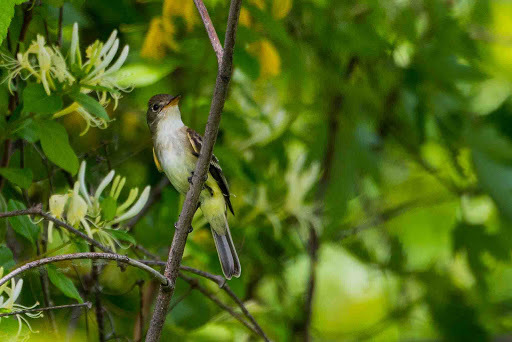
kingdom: Animalia
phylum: Chordata
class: Aves
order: Passeriformes
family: Tyrannidae
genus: Empidonax
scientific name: Empidonax
